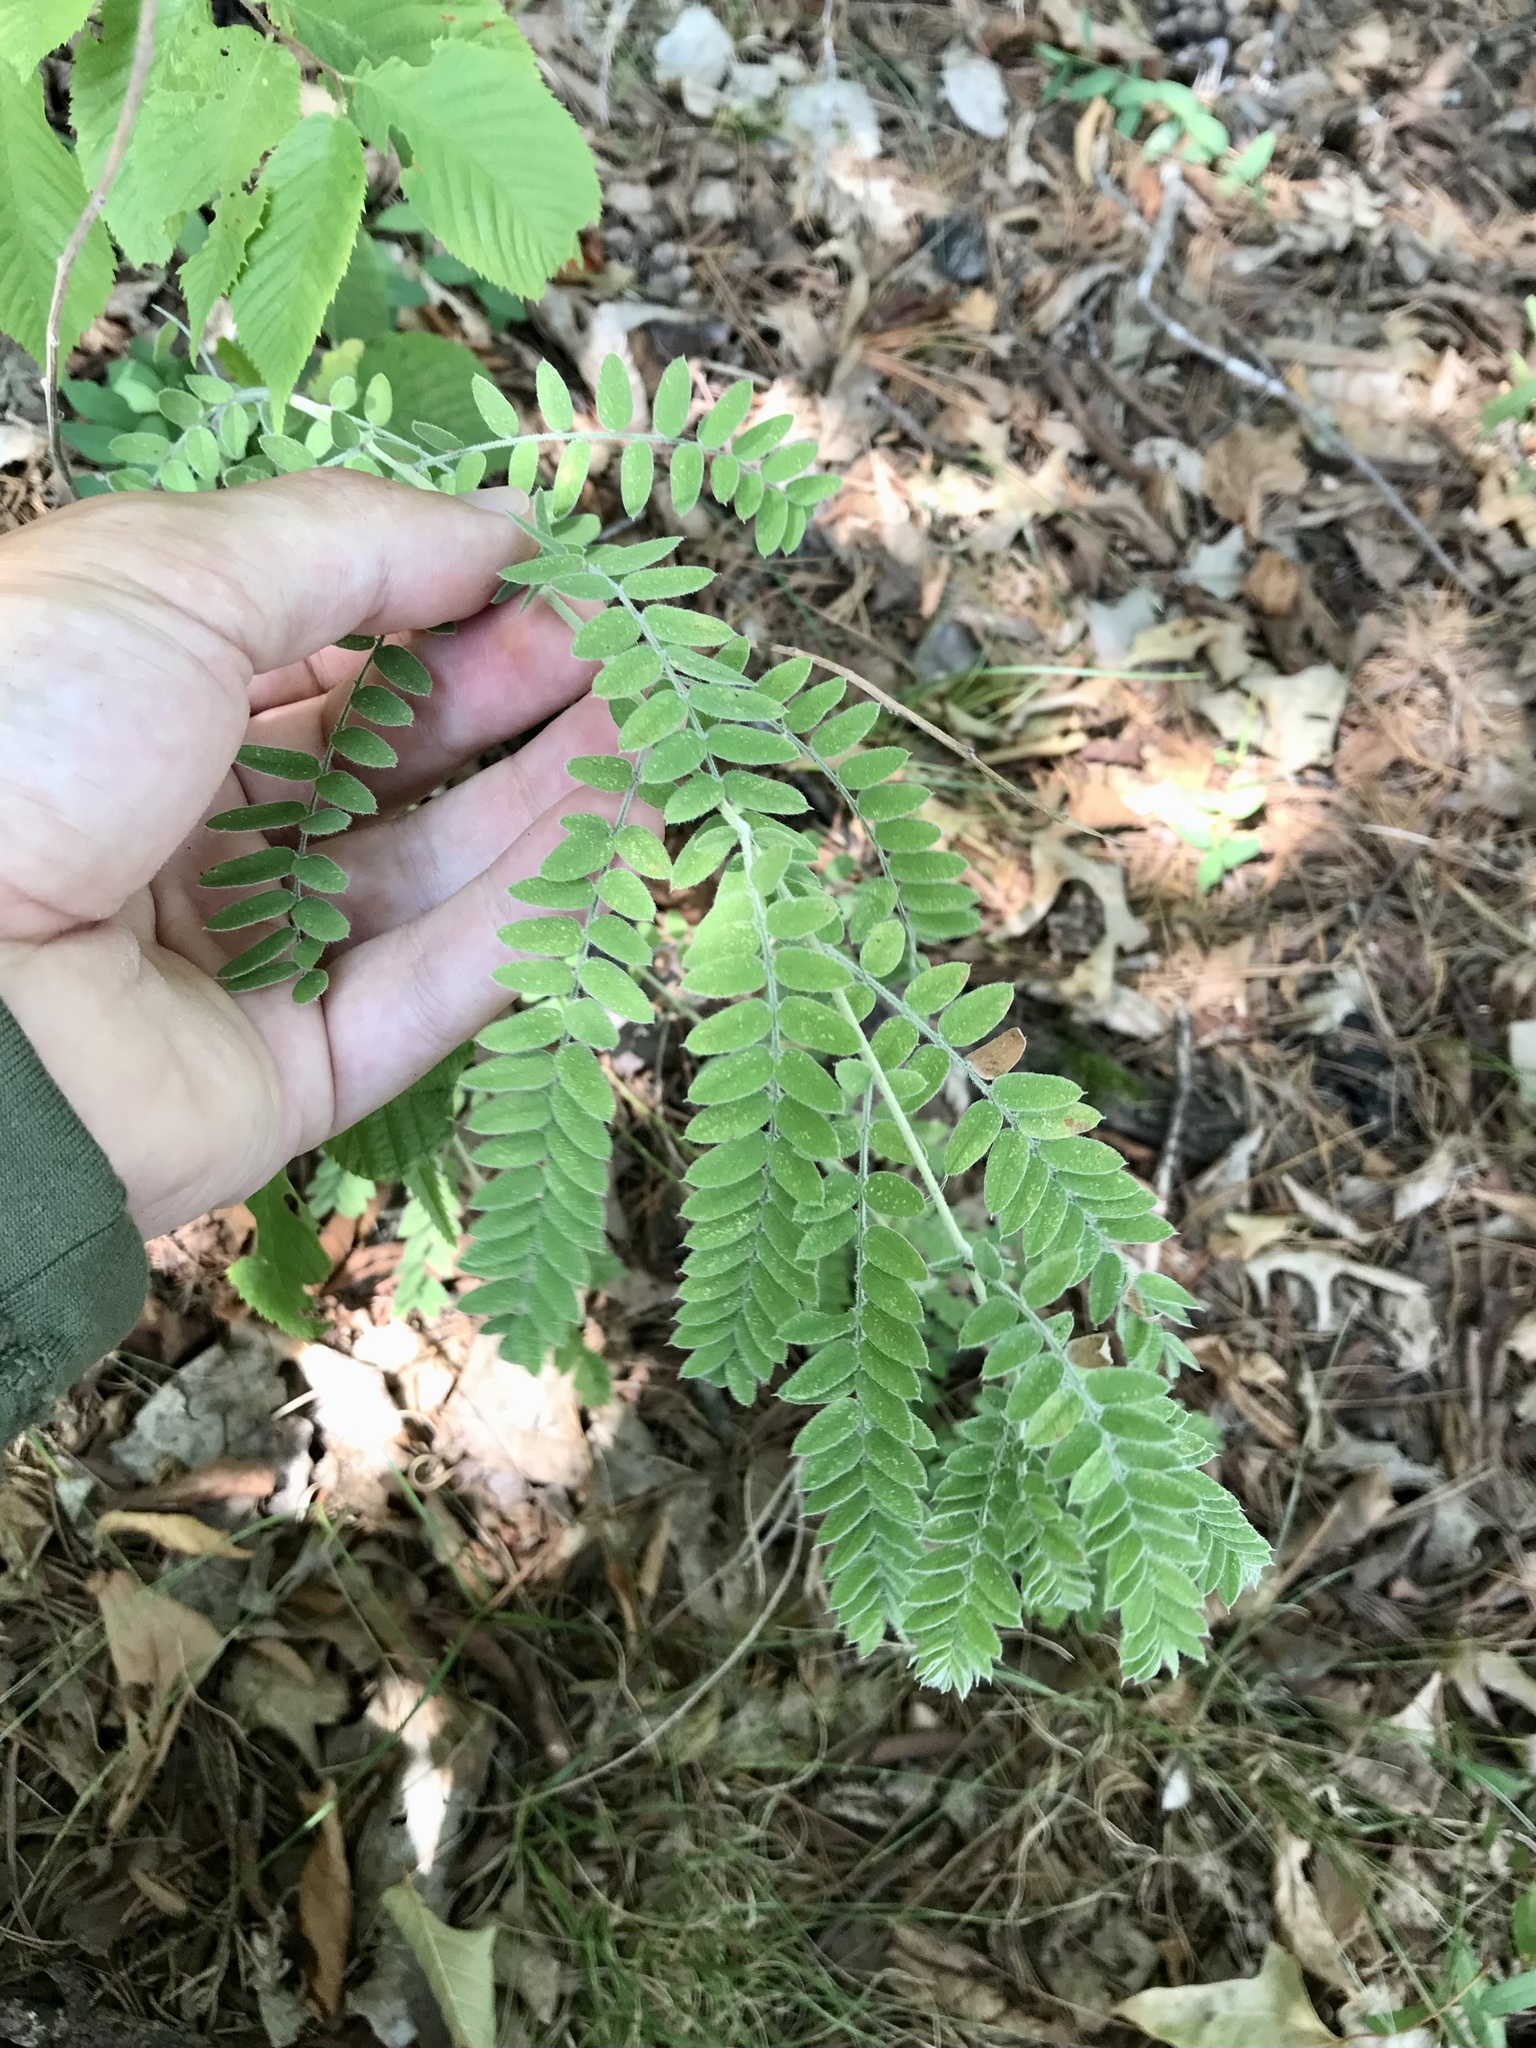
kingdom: Plantae
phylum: Tracheophyta
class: Magnoliopsida
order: Fabales
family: Fabaceae
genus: Amorpha
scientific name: Amorpha canescens
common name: Leadplant
